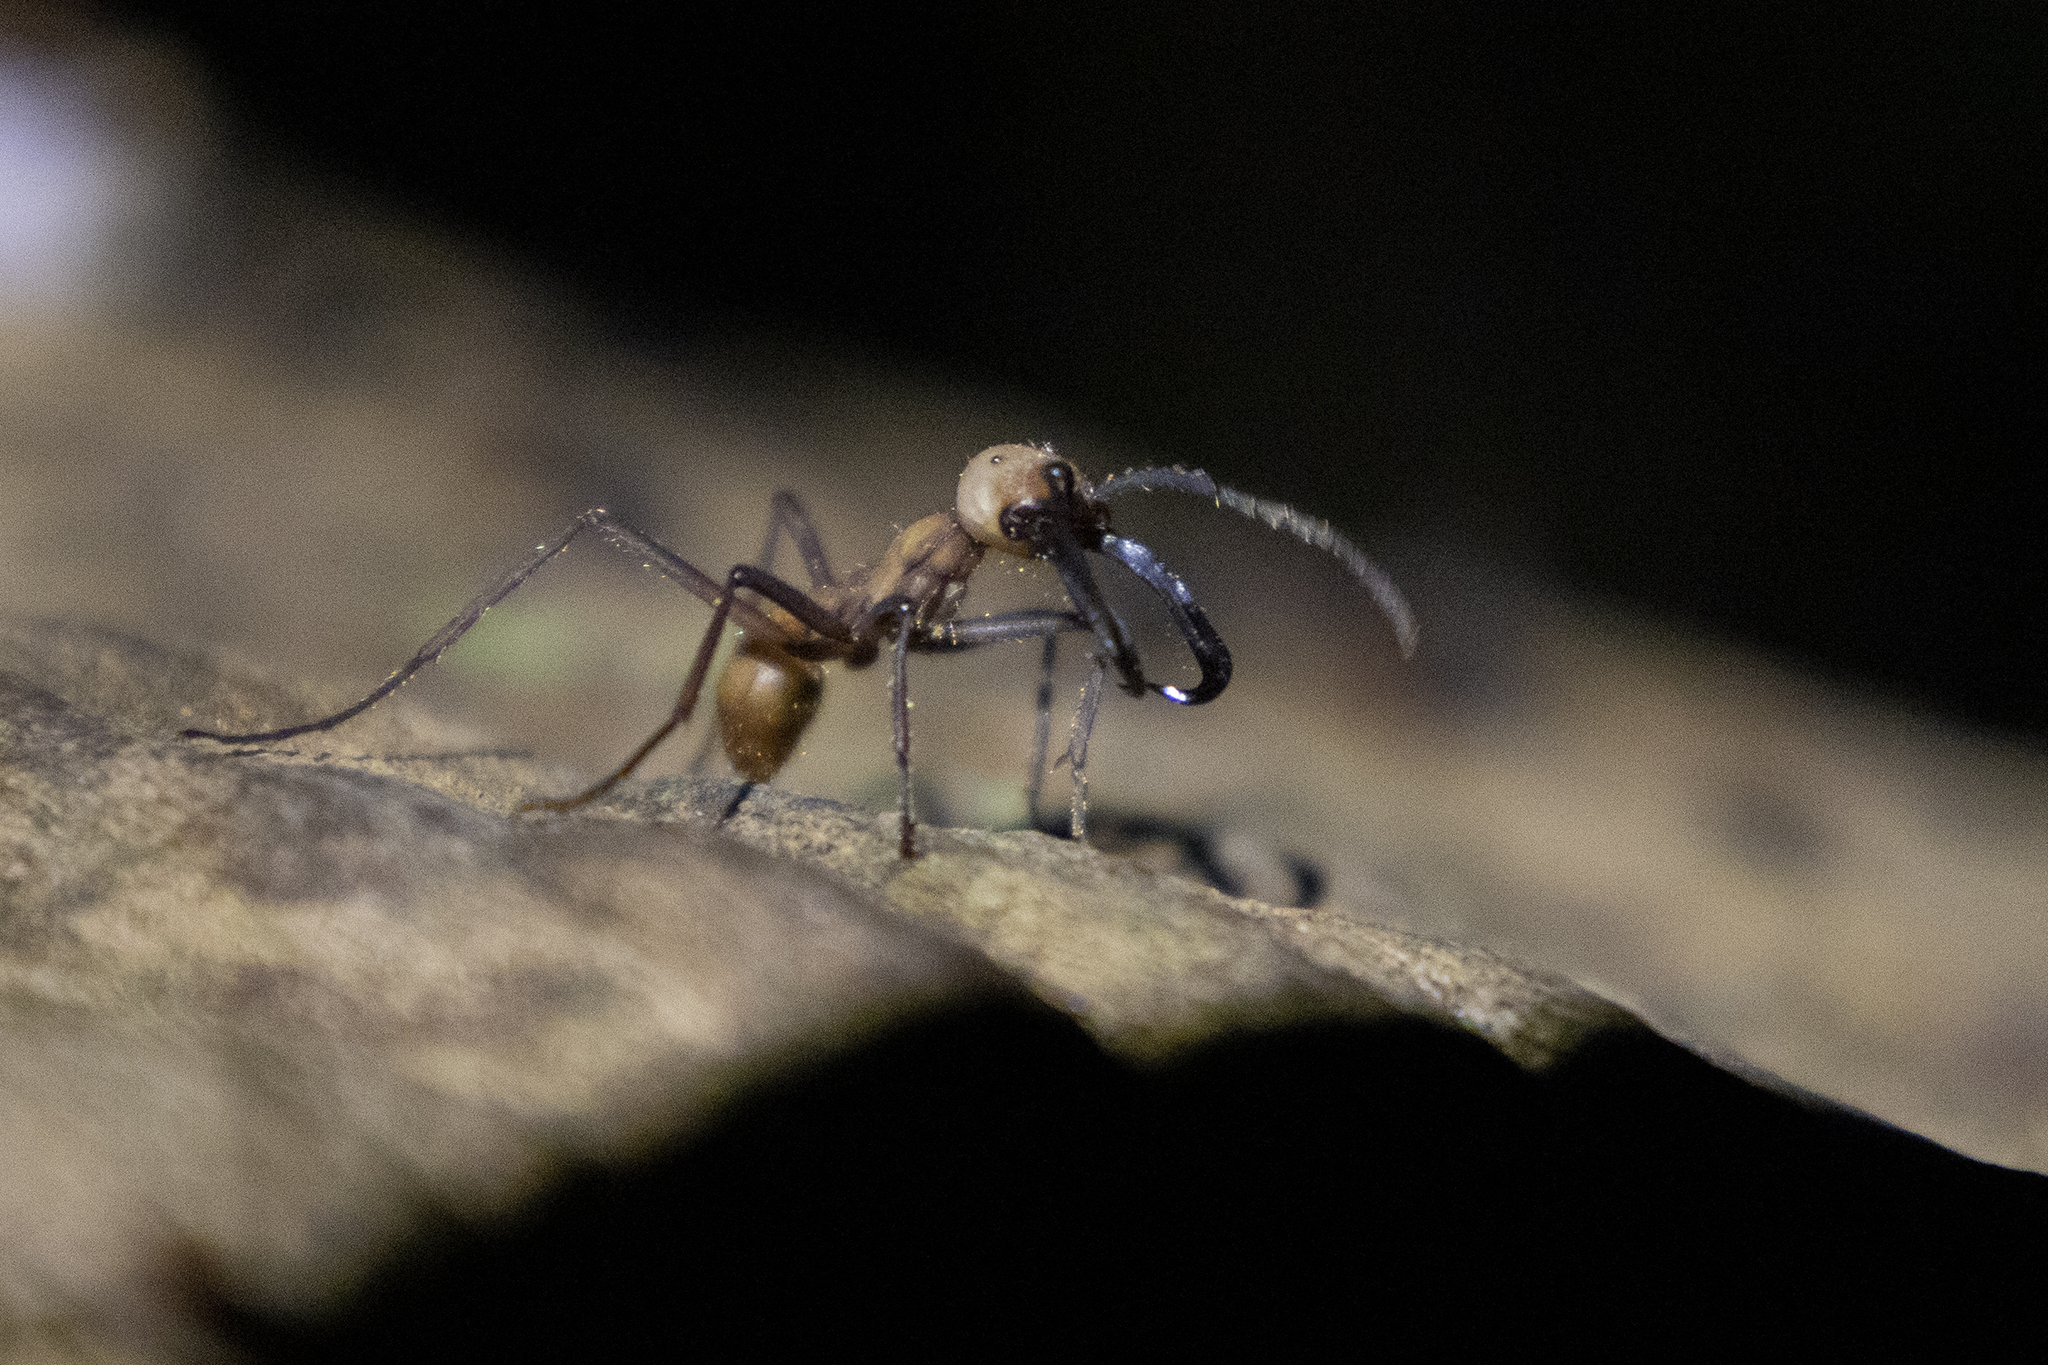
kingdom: Animalia
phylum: Arthropoda
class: Insecta
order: Hymenoptera
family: Formicidae
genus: Eciton
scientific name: Eciton burchellii
